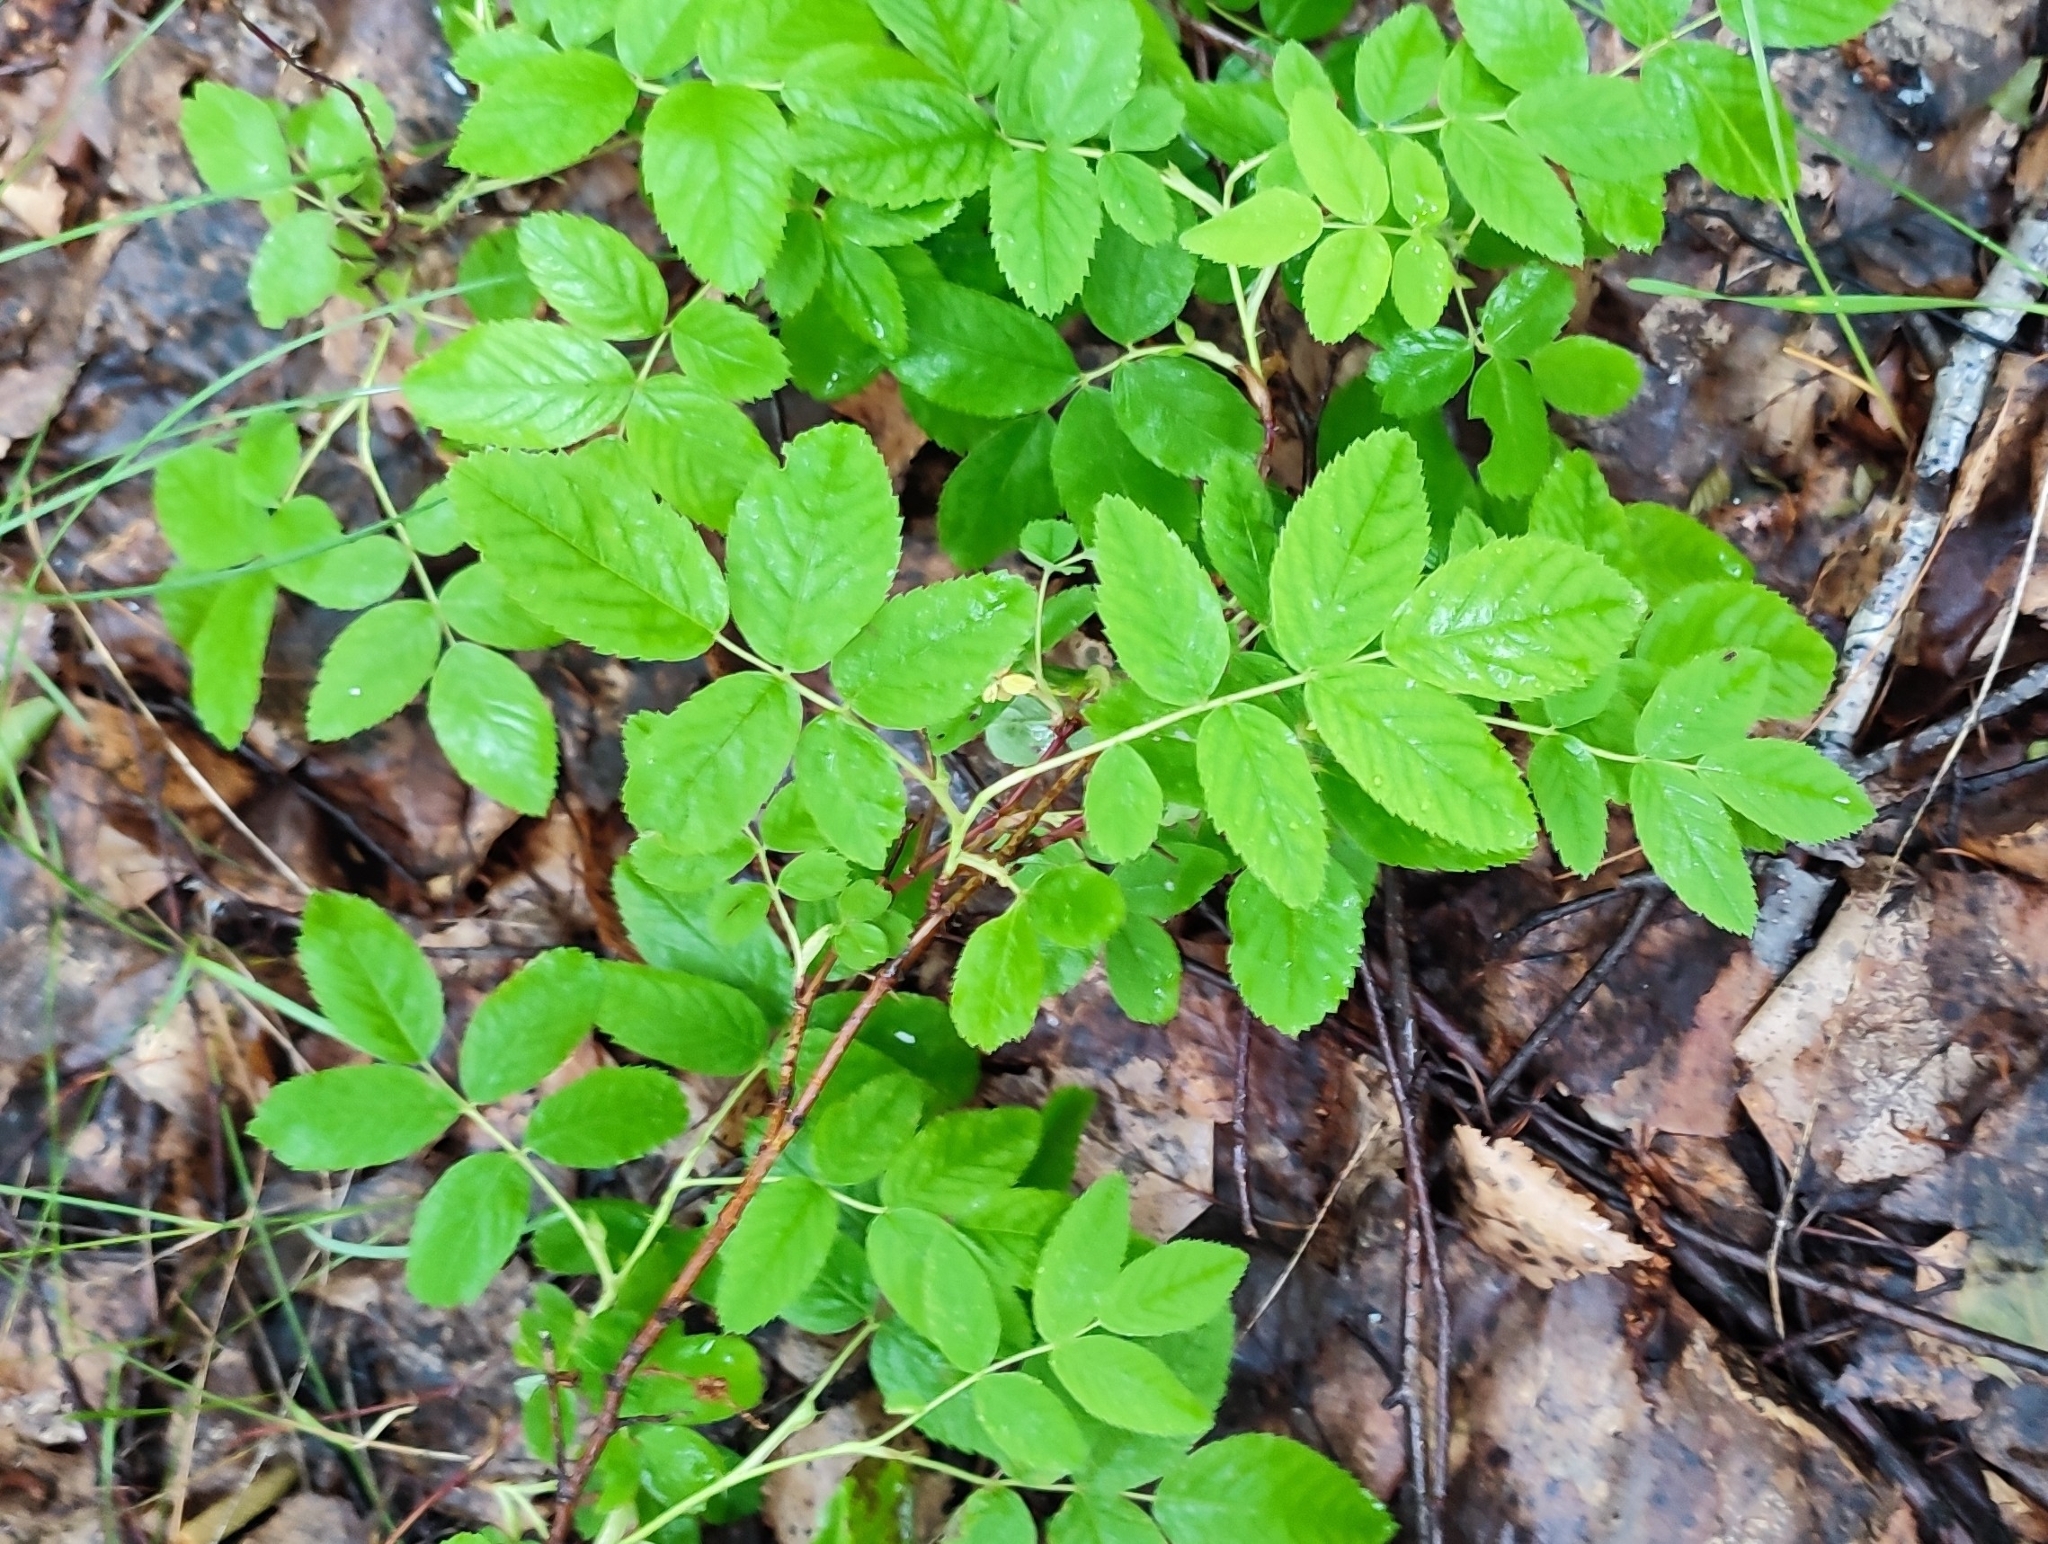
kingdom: Plantae
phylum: Tracheophyta
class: Magnoliopsida
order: Rosales
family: Rosaceae
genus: Rosa
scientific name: Rosa majalis
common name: Cinnamon rose
